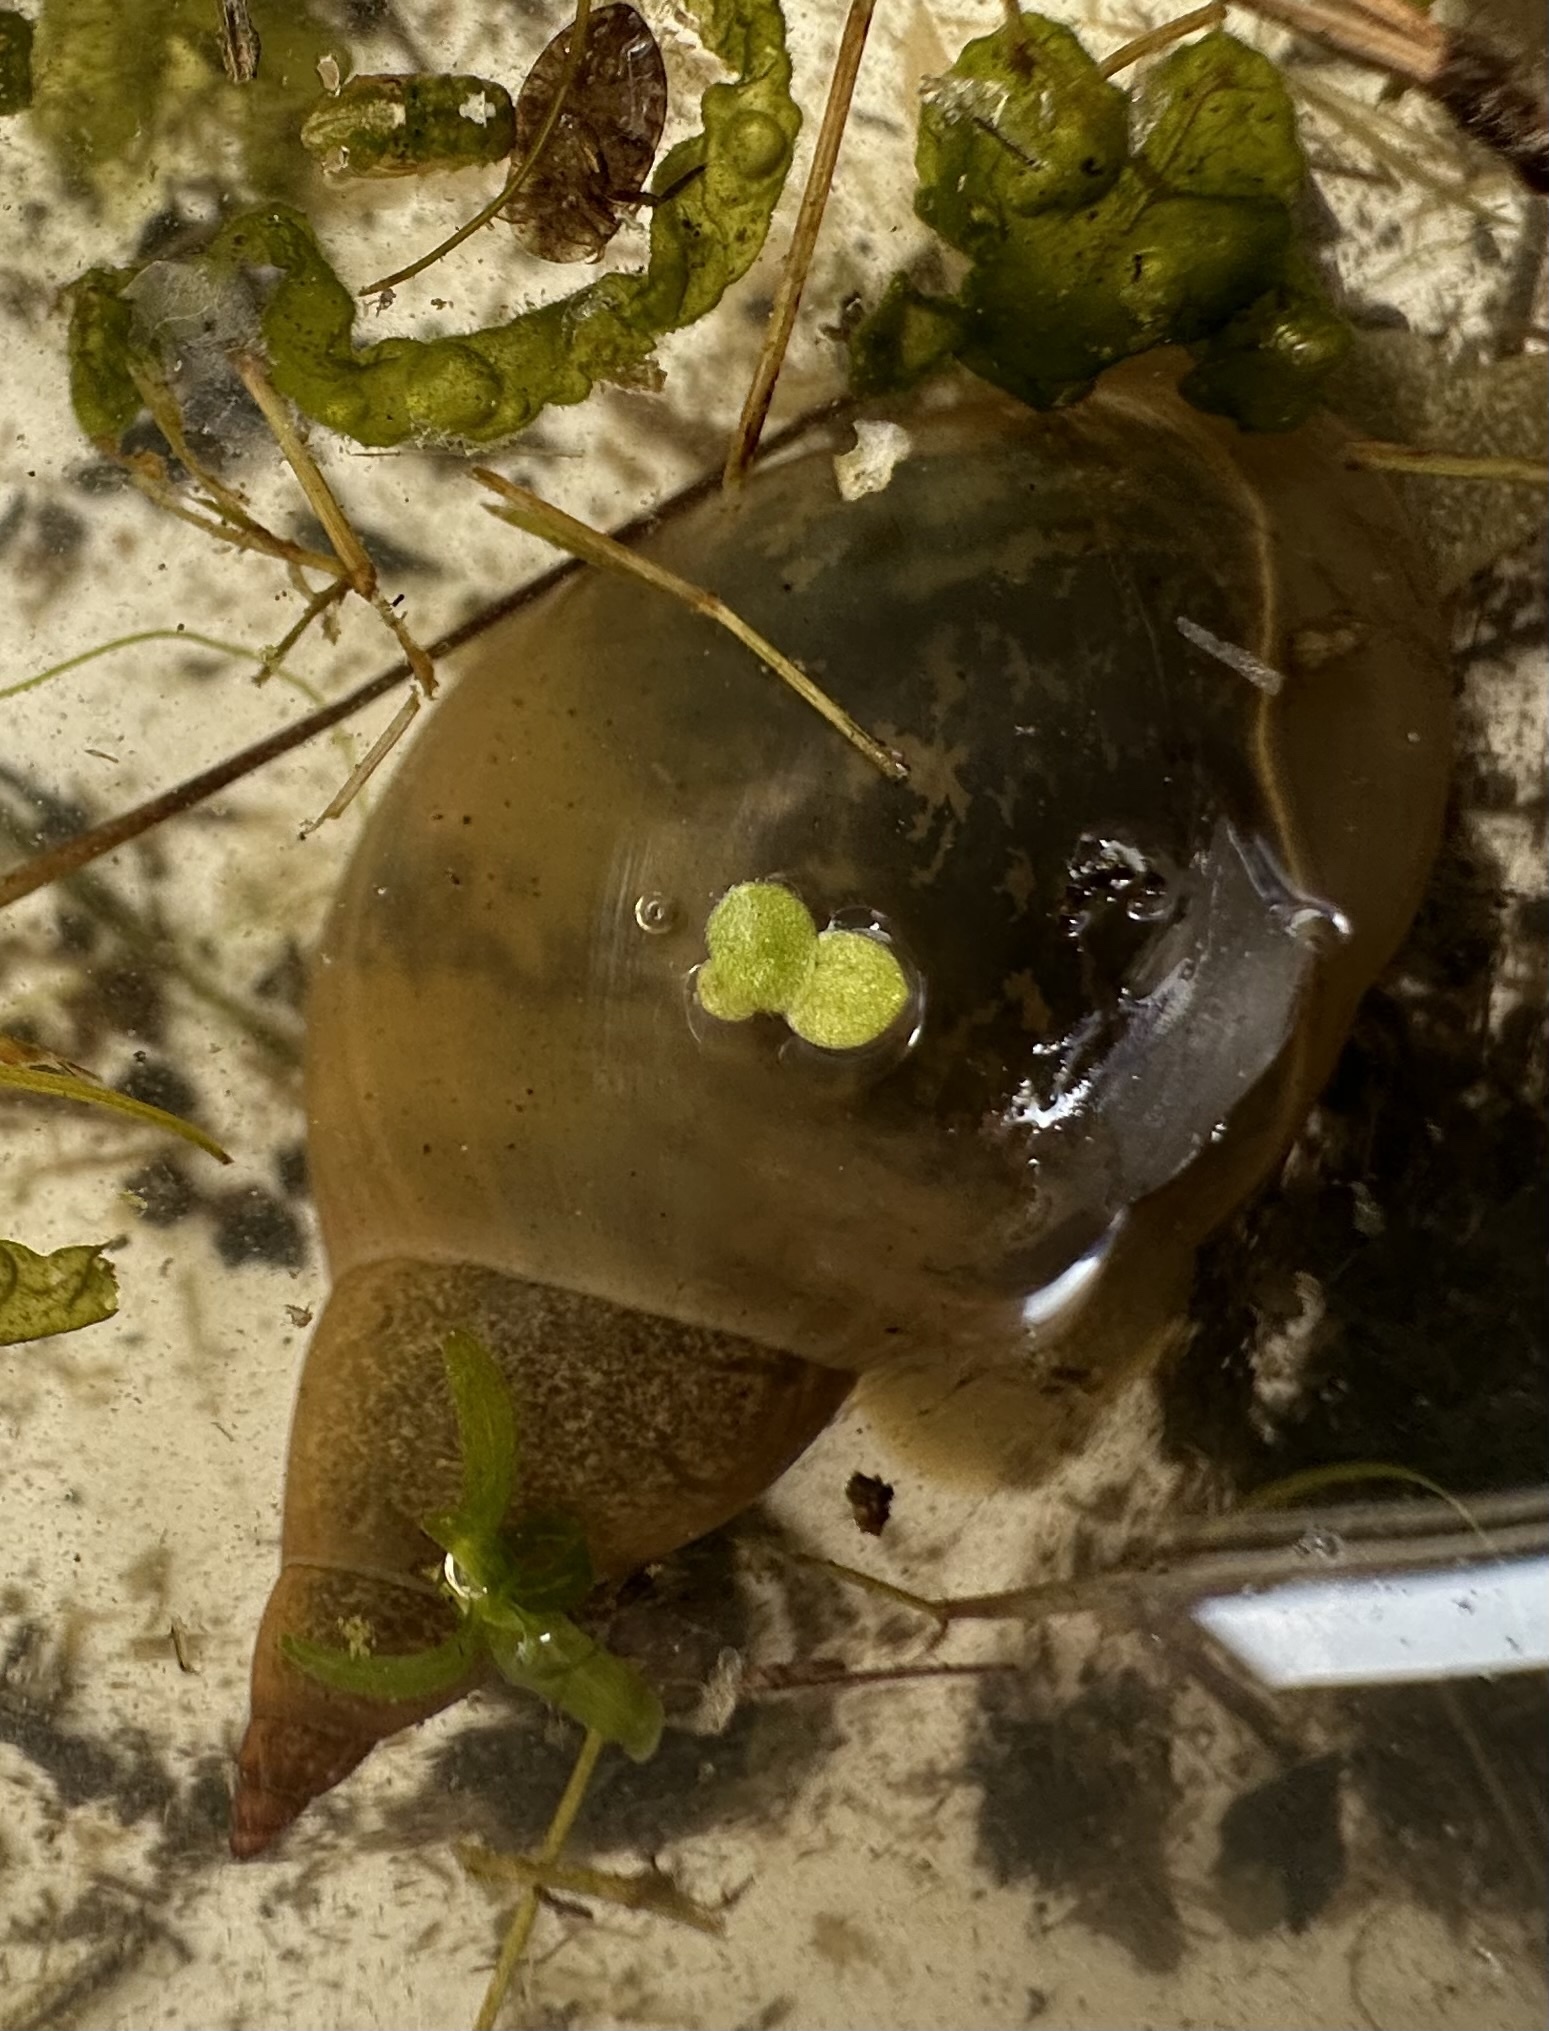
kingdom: Animalia
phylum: Mollusca
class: Gastropoda
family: Lymnaeidae
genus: Lymnaea
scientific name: Lymnaea stagnalis
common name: Great pond snail
